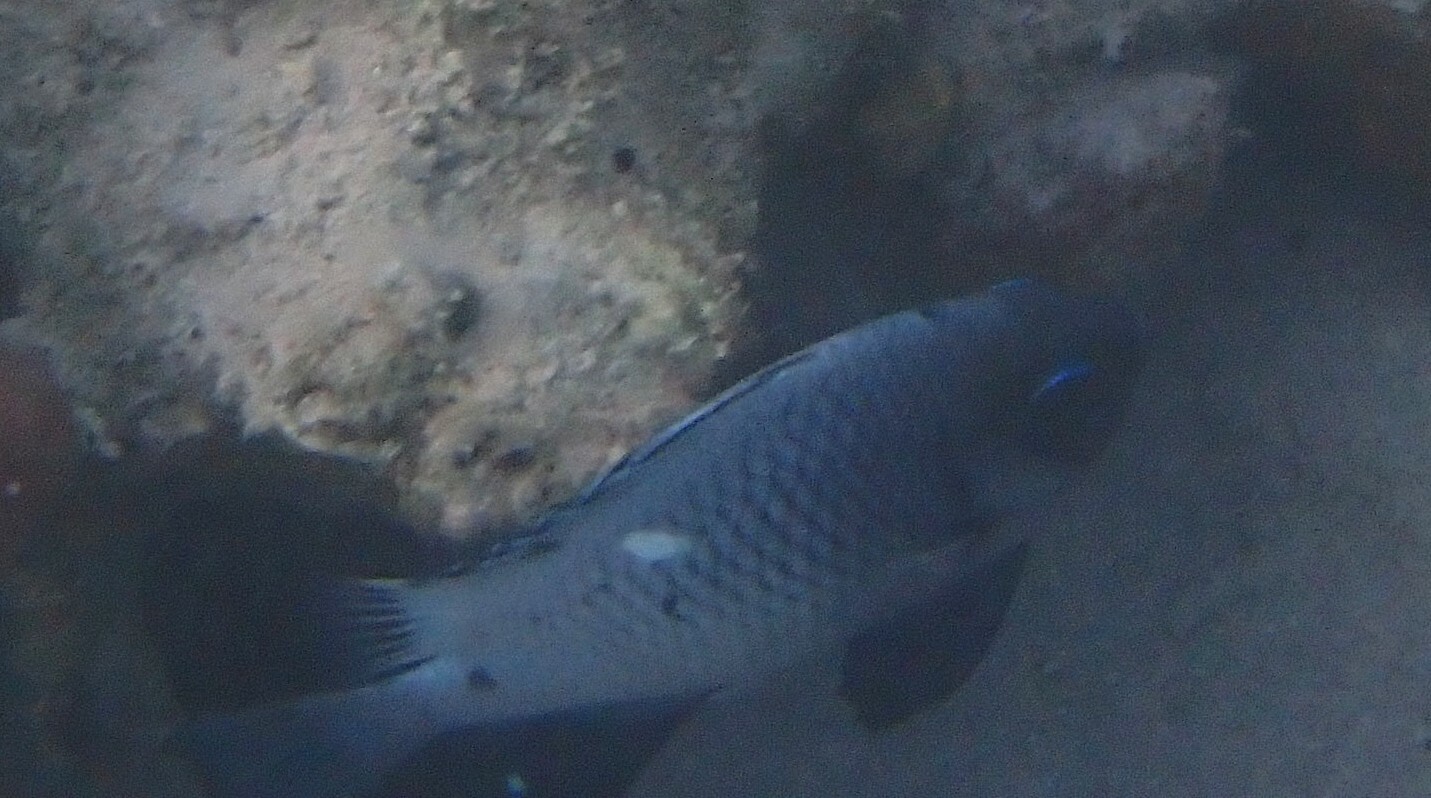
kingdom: Animalia
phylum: Chordata
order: Perciformes
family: Pomacentridae
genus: Dascyllus
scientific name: Dascyllus trimaculatus
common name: Threespot dascyllus
